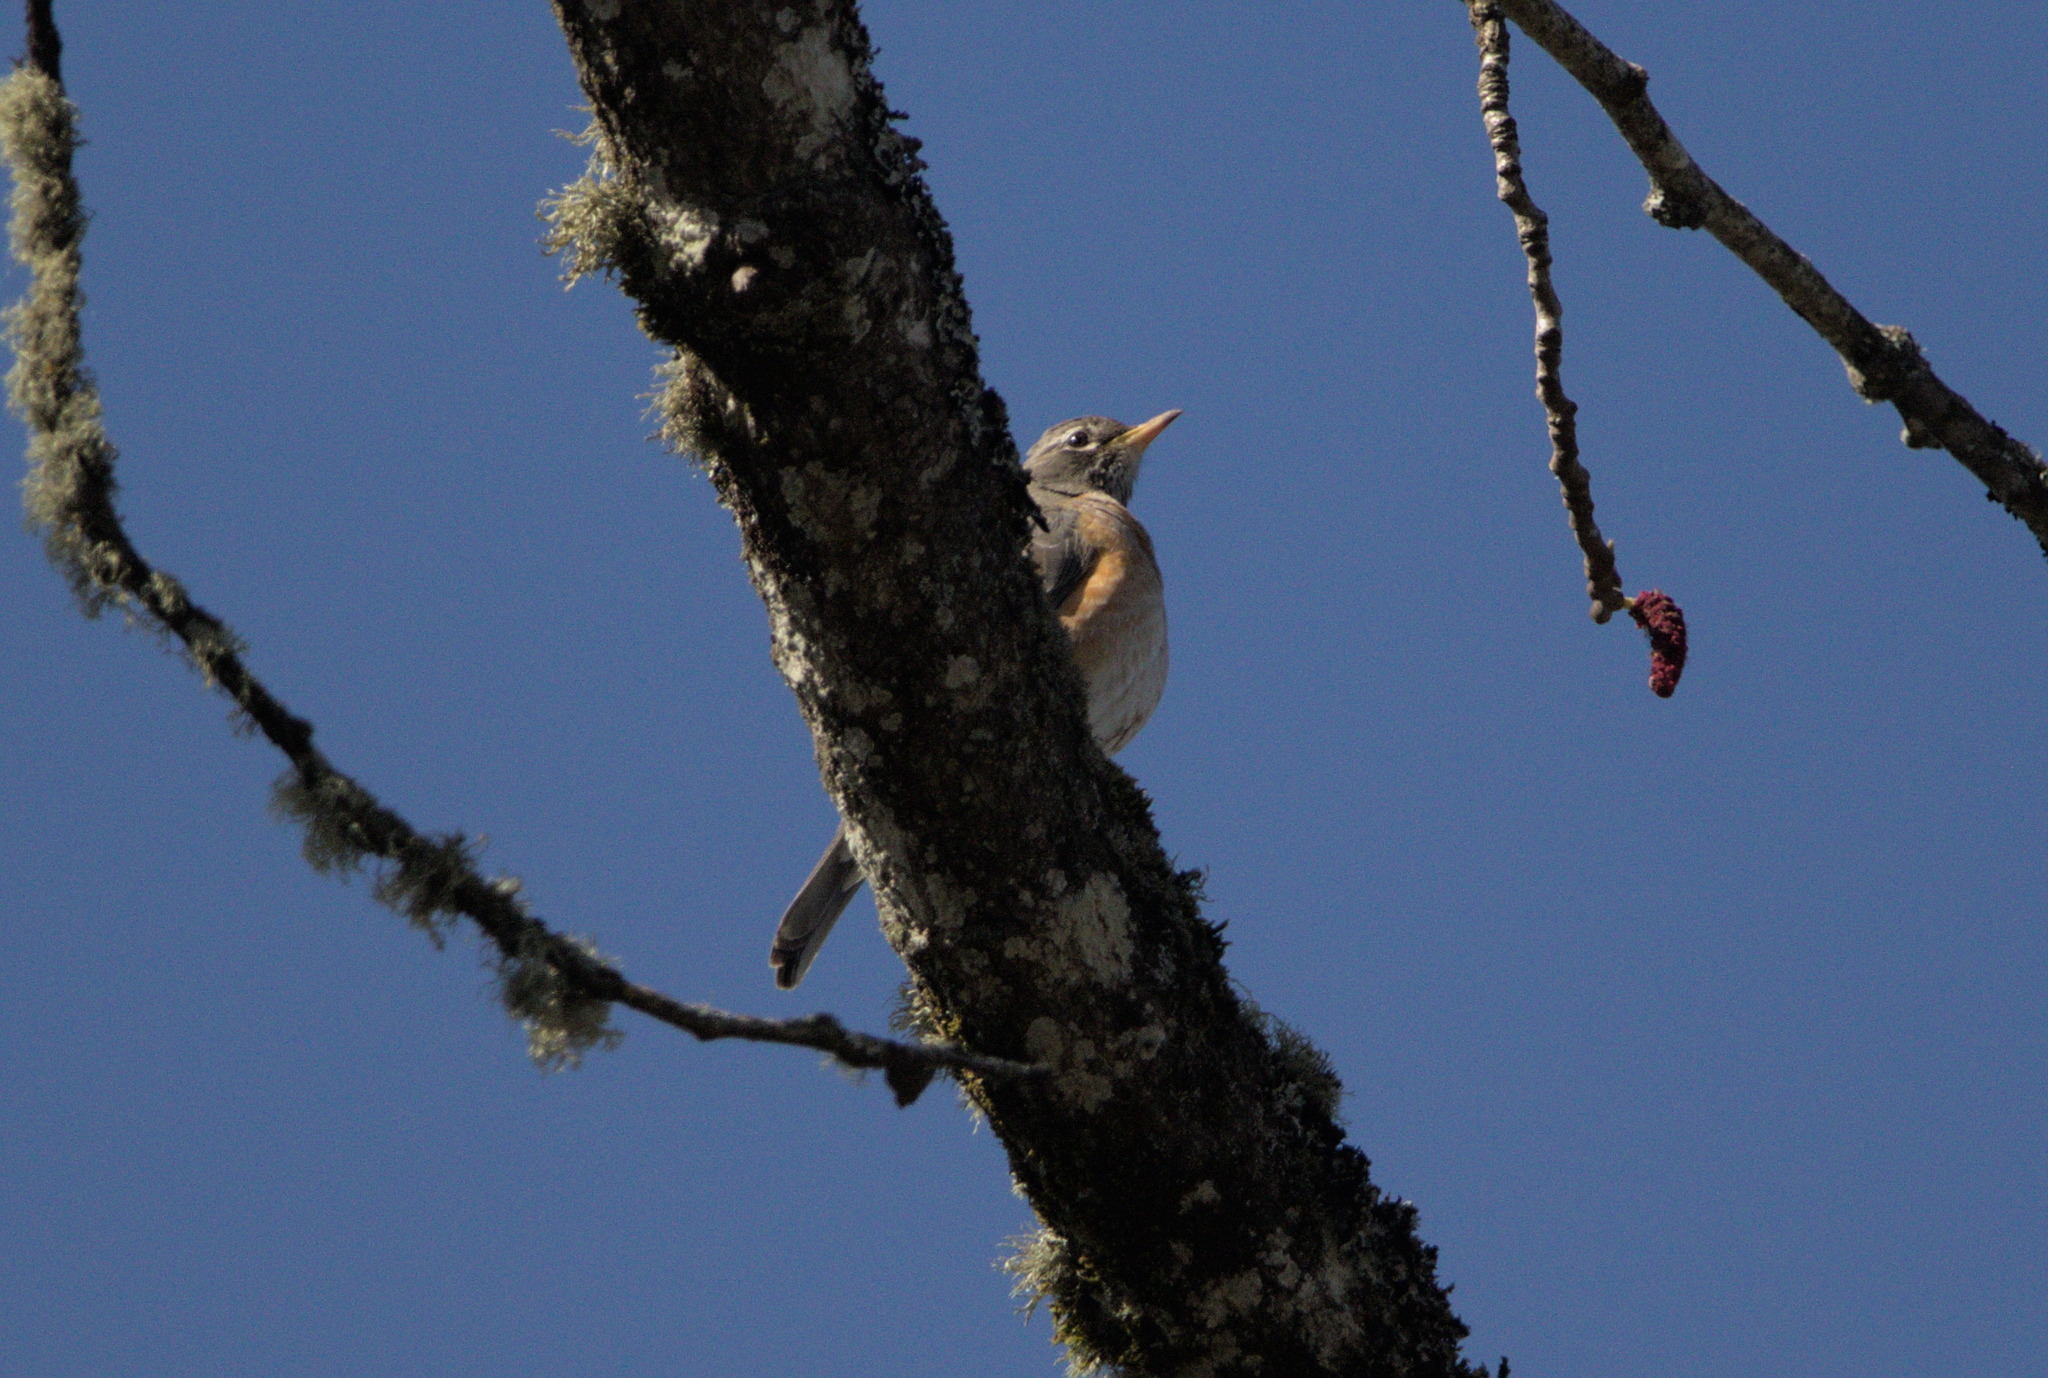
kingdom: Animalia
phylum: Chordata
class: Aves
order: Passeriformes
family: Turdidae
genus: Turdus
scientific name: Turdus migratorius
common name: American robin
